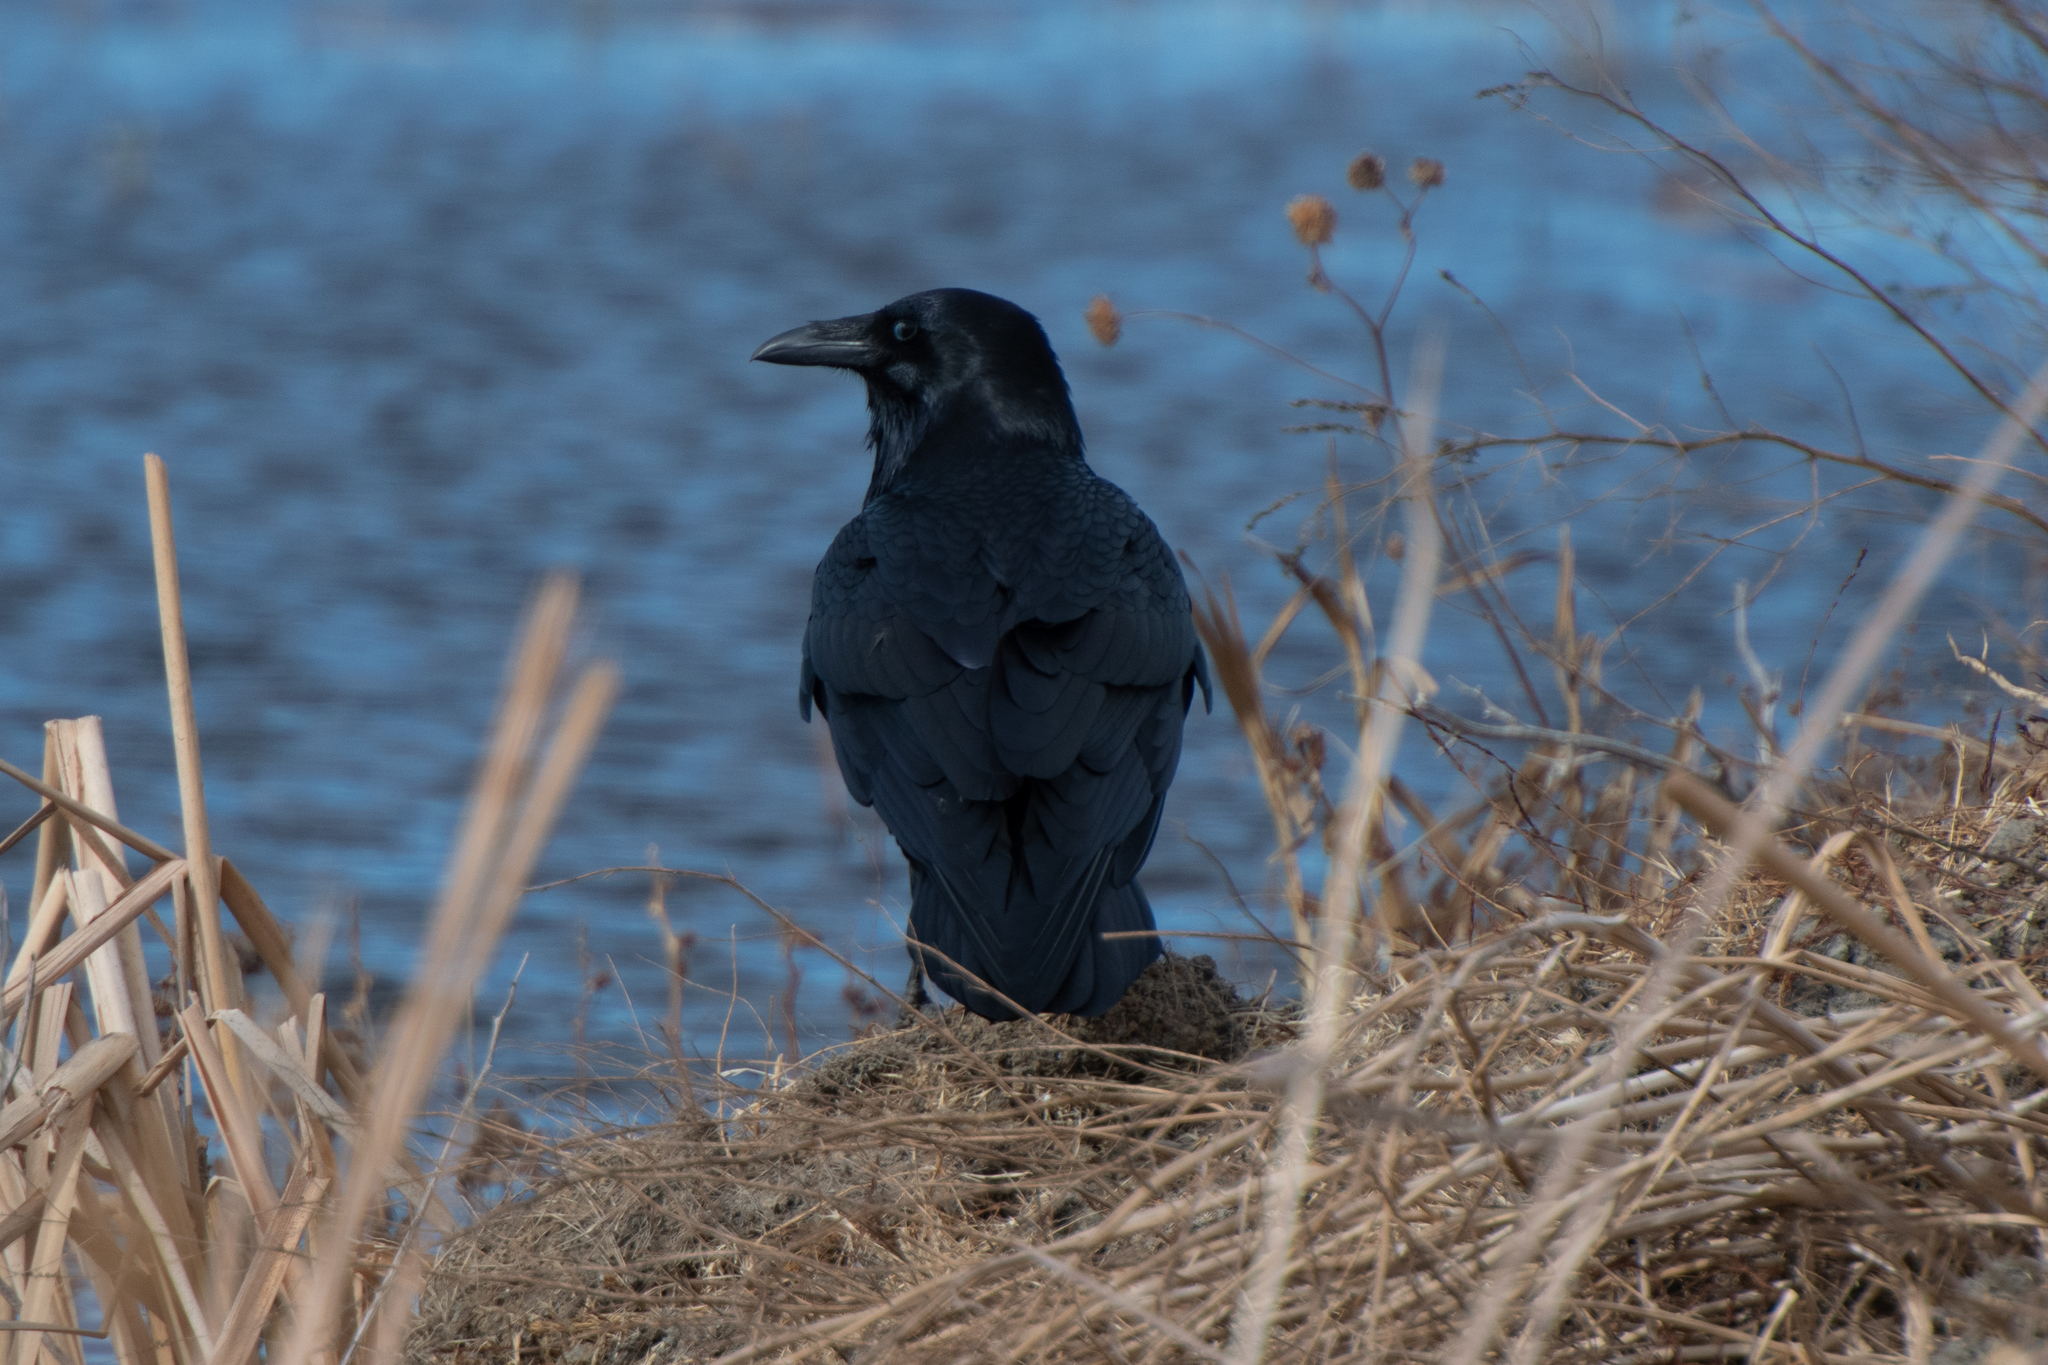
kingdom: Animalia
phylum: Chordata
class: Aves
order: Passeriformes
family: Corvidae
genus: Corvus
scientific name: Corvus corax
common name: Common raven
